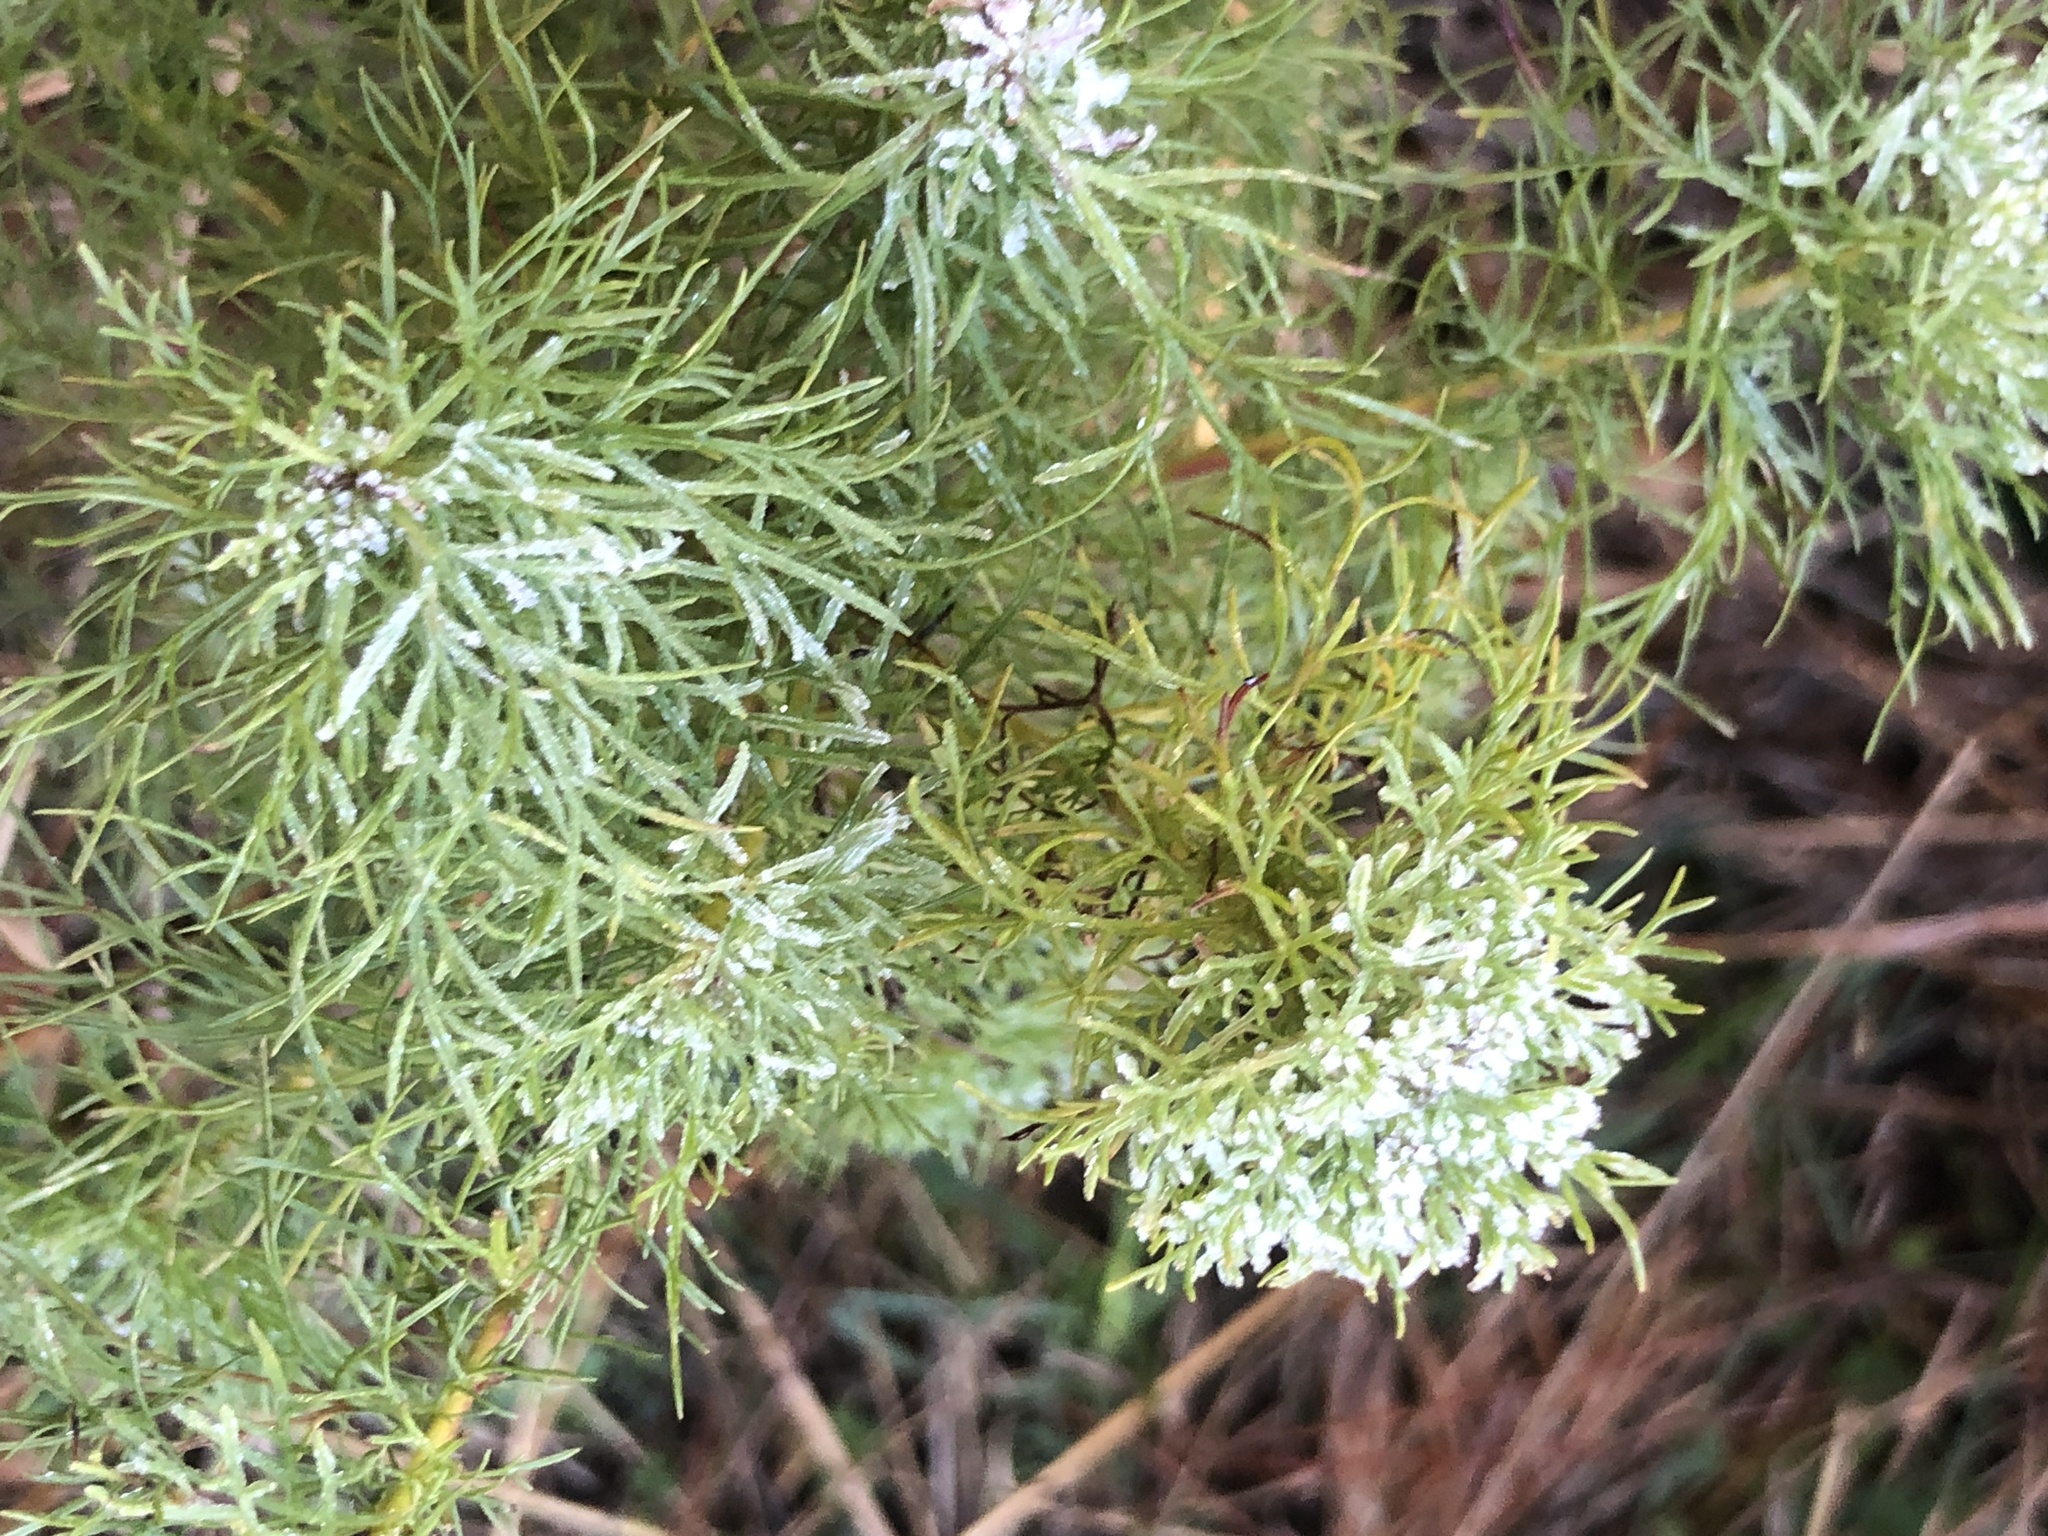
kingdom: Plantae
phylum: Tracheophyta
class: Magnoliopsida
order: Asterales
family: Asteraceae
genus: Eupatorium
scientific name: Eupatorium capillifolium
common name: Dog-fennel
